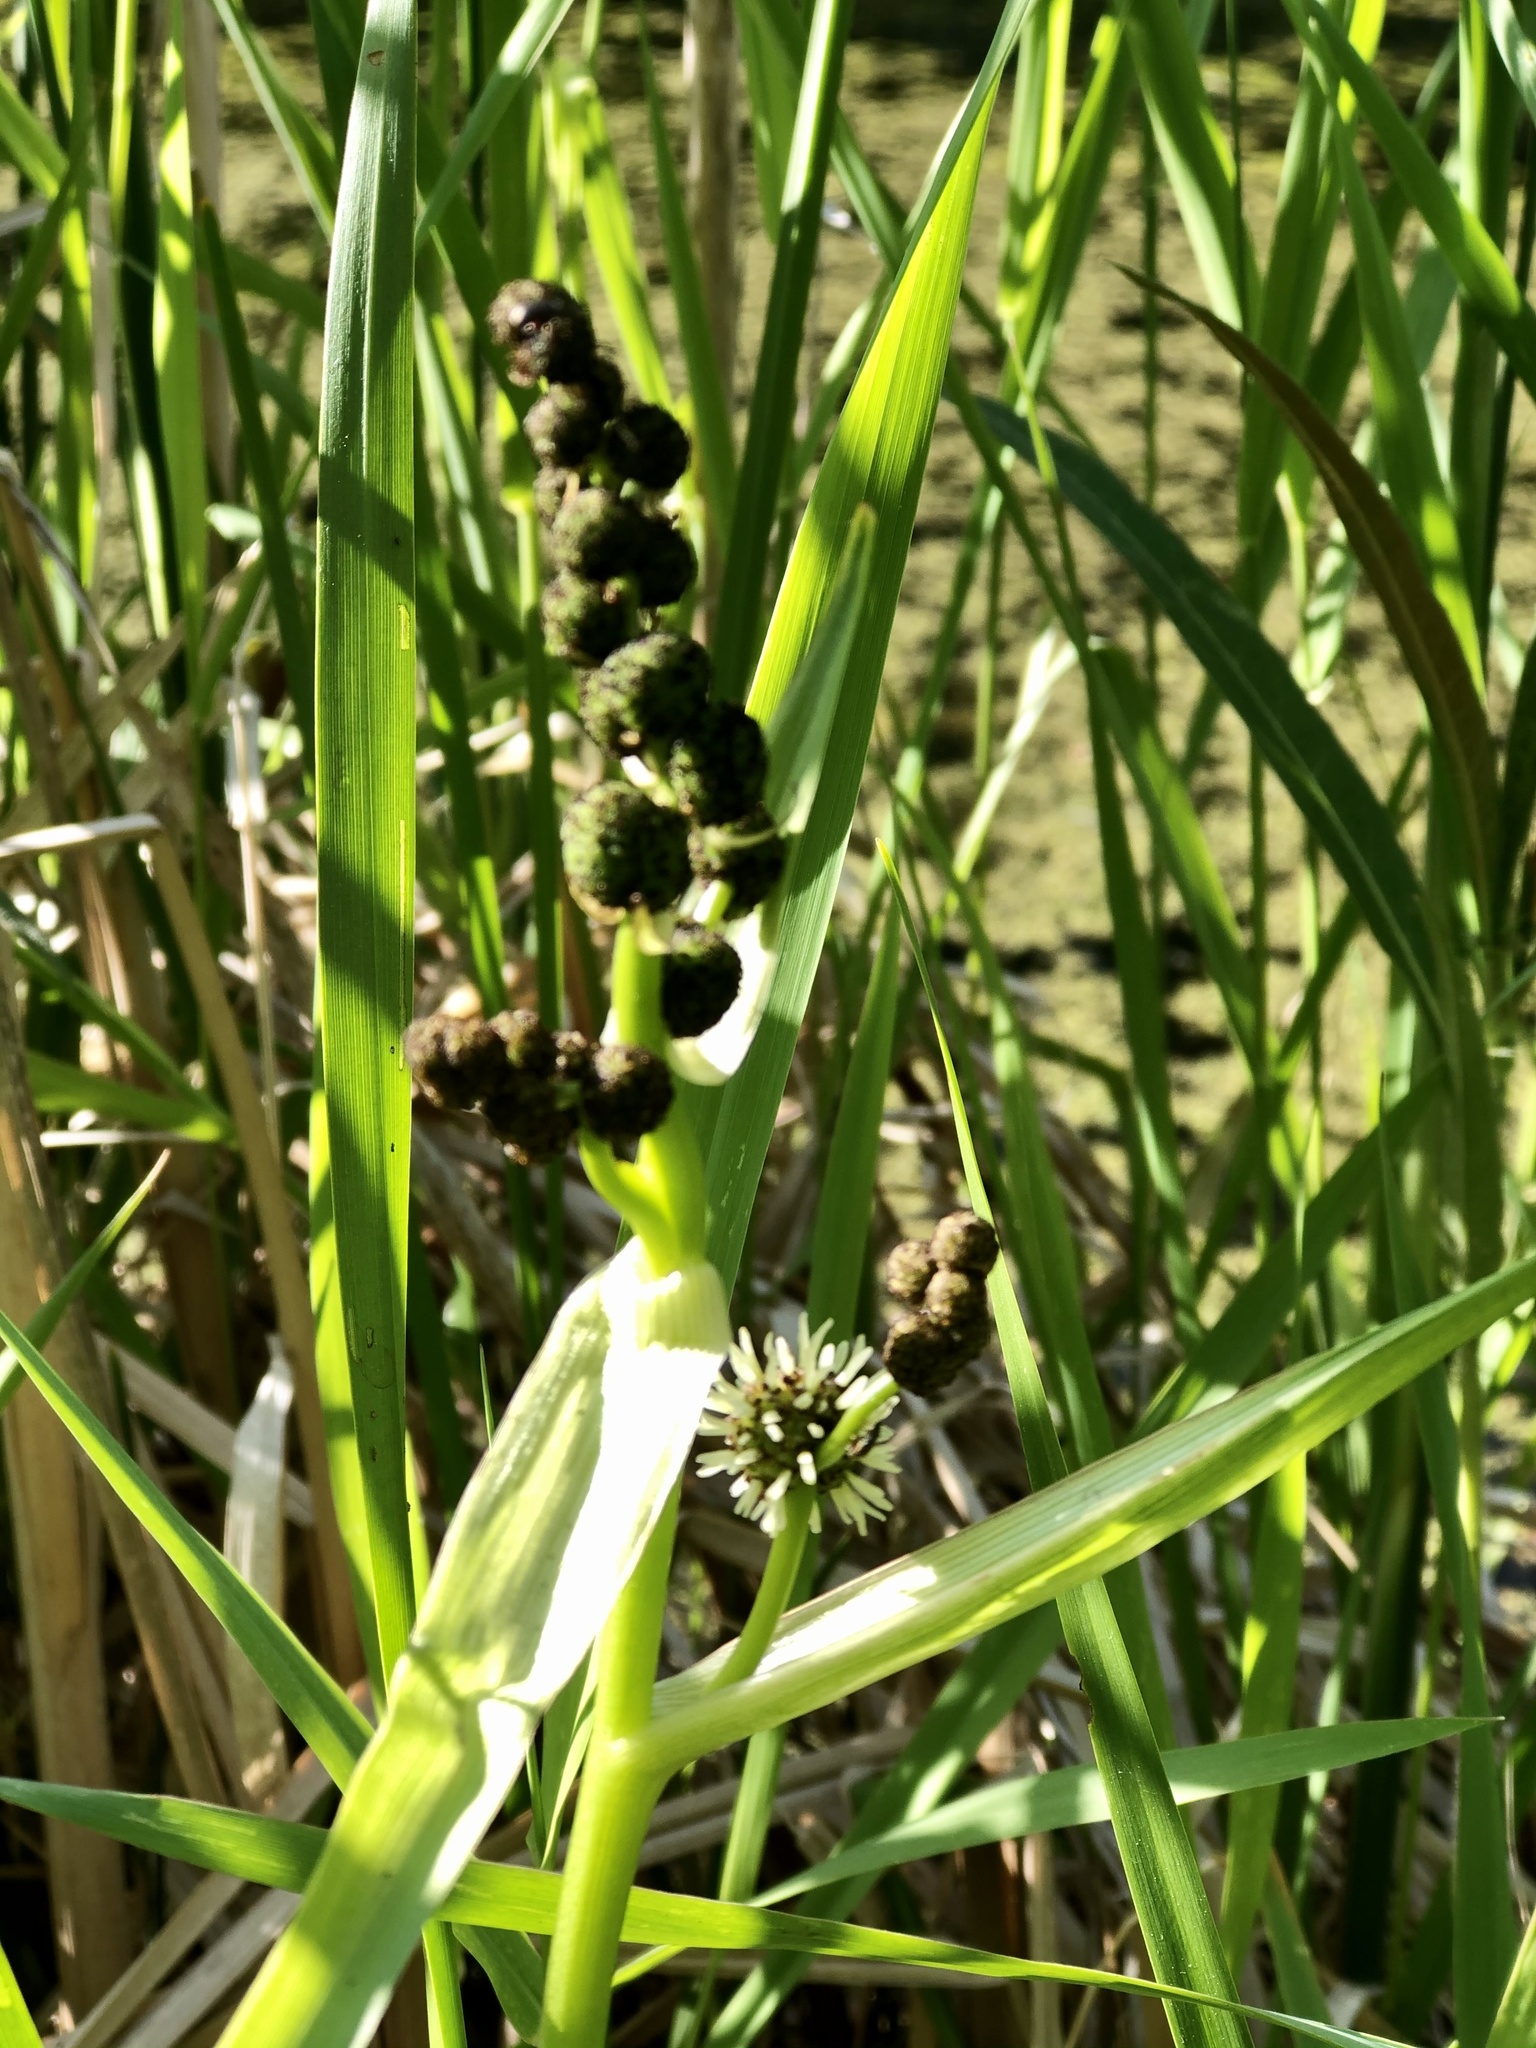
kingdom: Plantae
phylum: Tracheophyta
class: Liliopsida
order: Poales
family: Typhaceae
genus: Sparganium
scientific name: Sparganium eurycarpum
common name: Broad-fruited burreed
